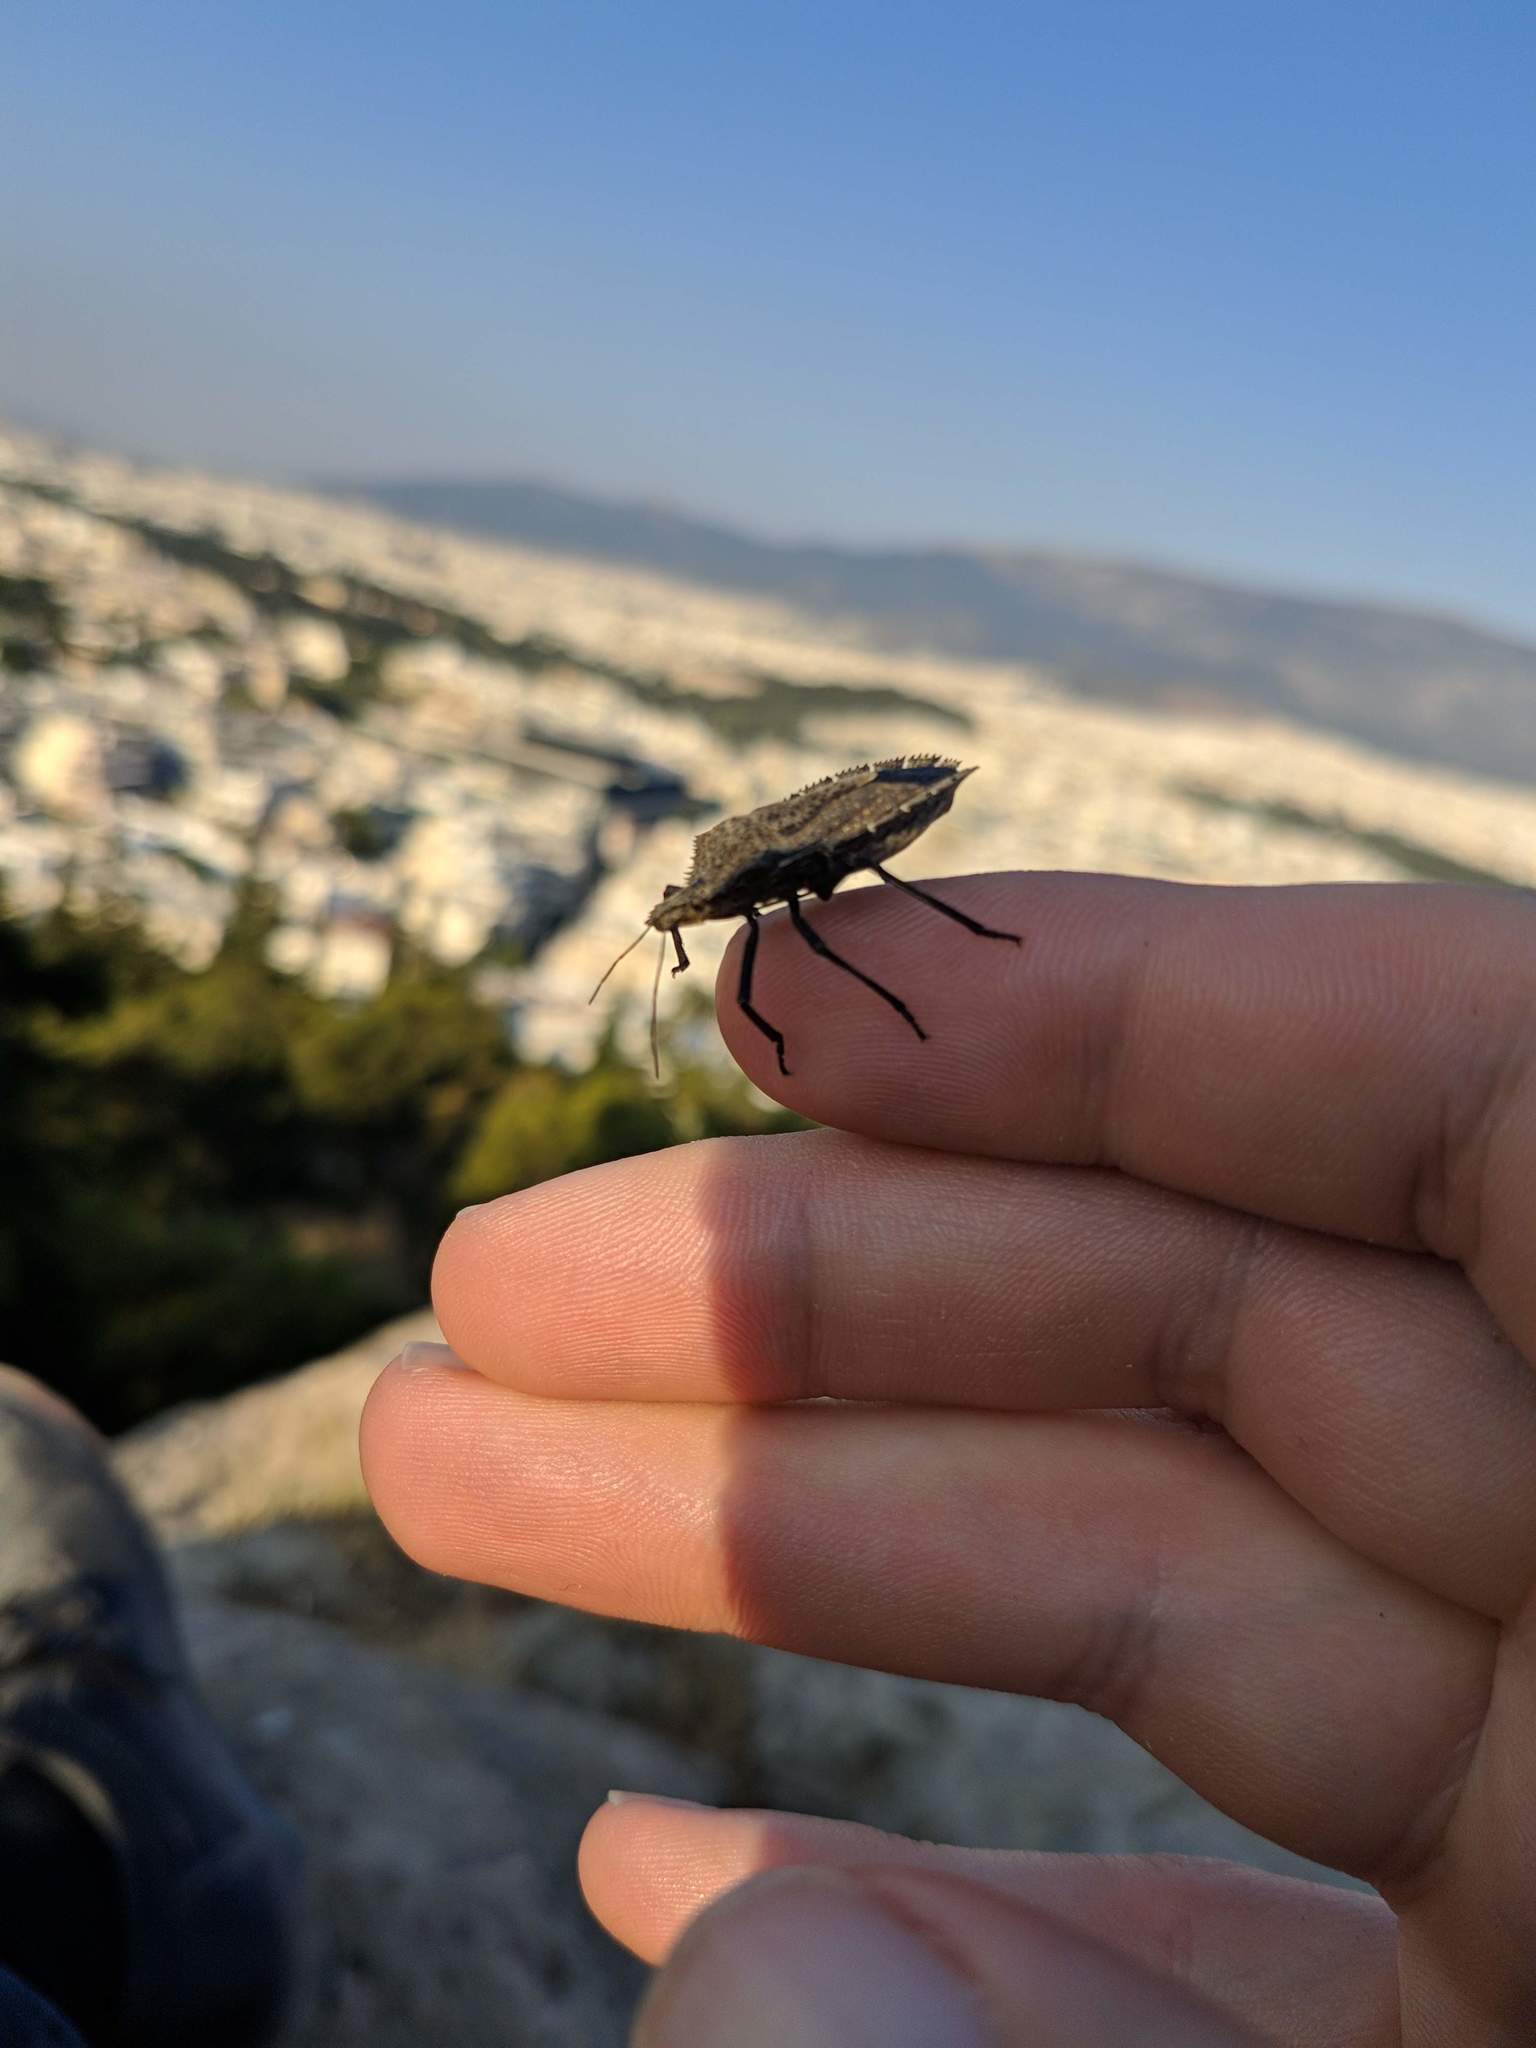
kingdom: Animalia
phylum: Arthropoda
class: Insecta
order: Hemiptera
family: Pentatomidae
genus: Mustha
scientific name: Mustha spinosula
